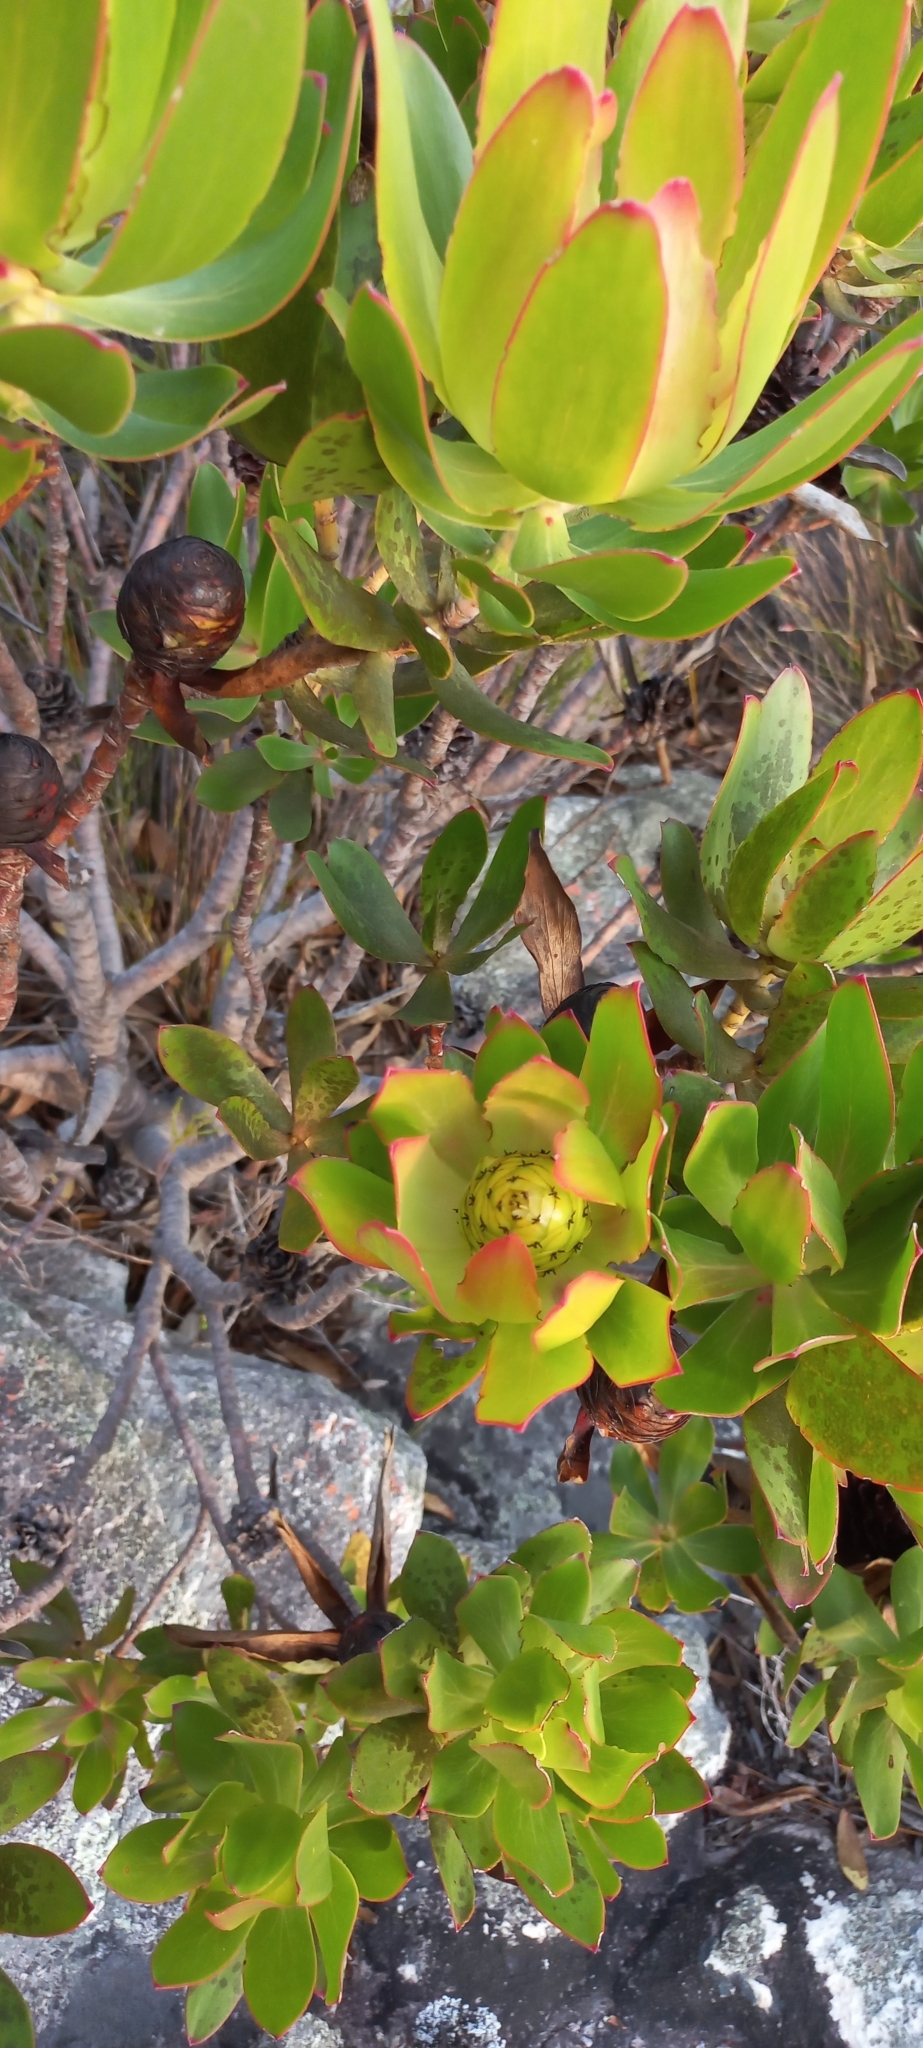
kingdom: Plantae
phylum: Tracheophyta
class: Magnoliopsida
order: Proteales
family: Proteaceae
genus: Leucadendron
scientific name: Leucadendron gandogeri
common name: Broad-leaf conebush
